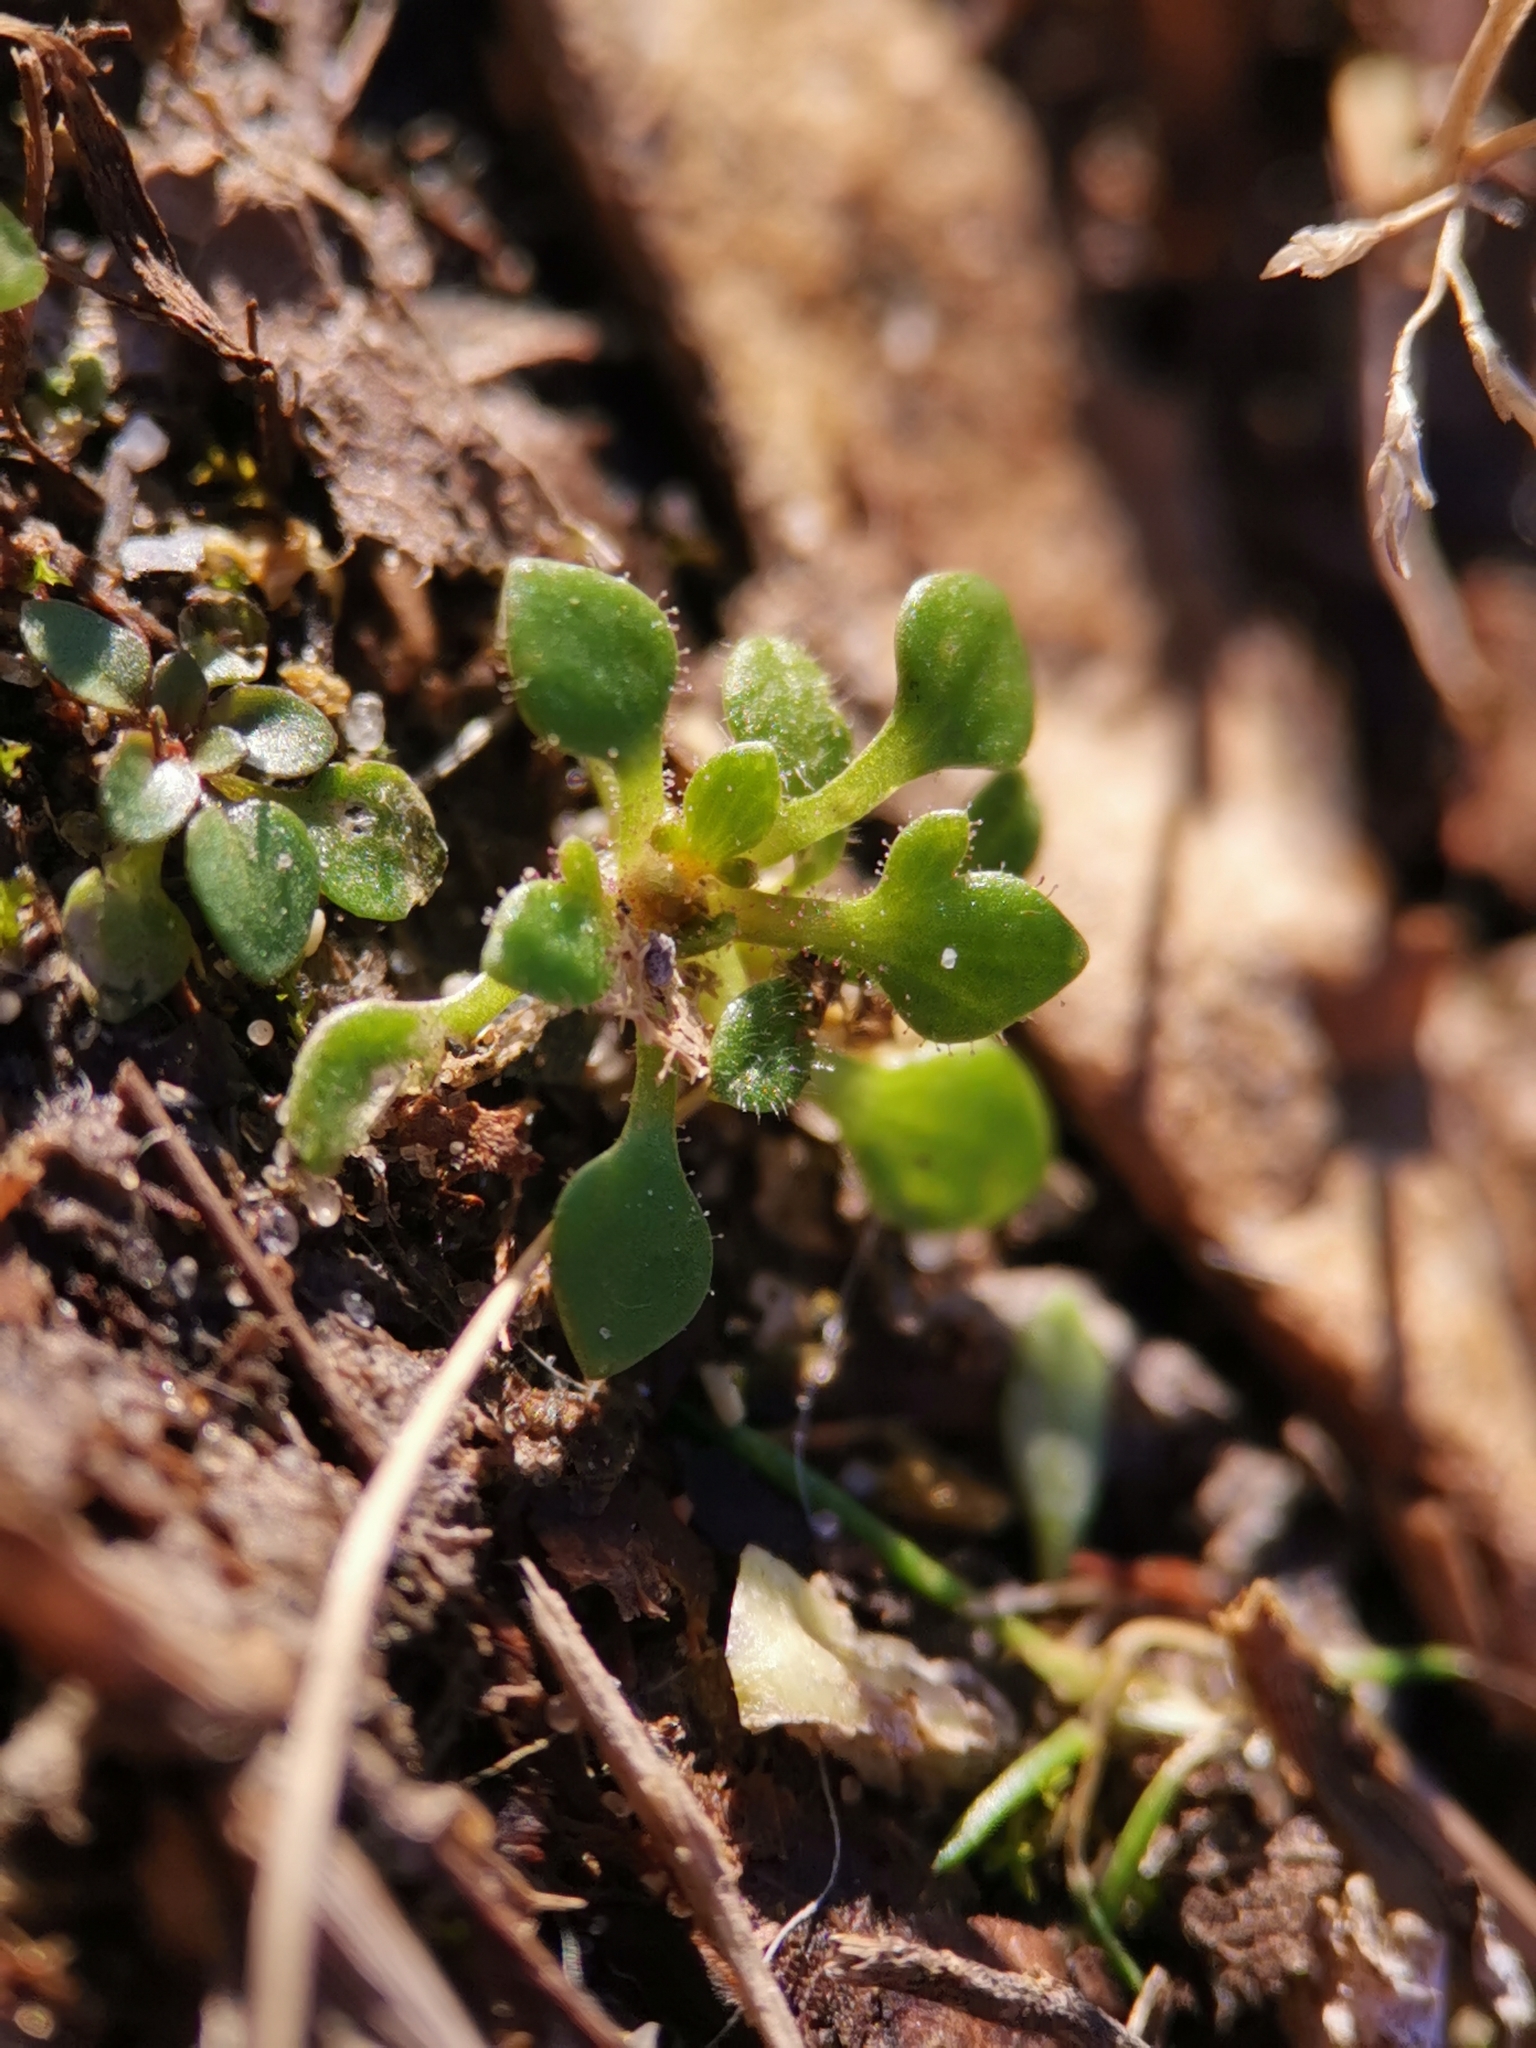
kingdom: Plantae
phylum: Tracheophyta
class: Magnoliopsida
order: Saxifragales
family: Saxifragaceae
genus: Saxifraga
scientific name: Saxifraga tridactylites
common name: Rue-leaved saxifrage
